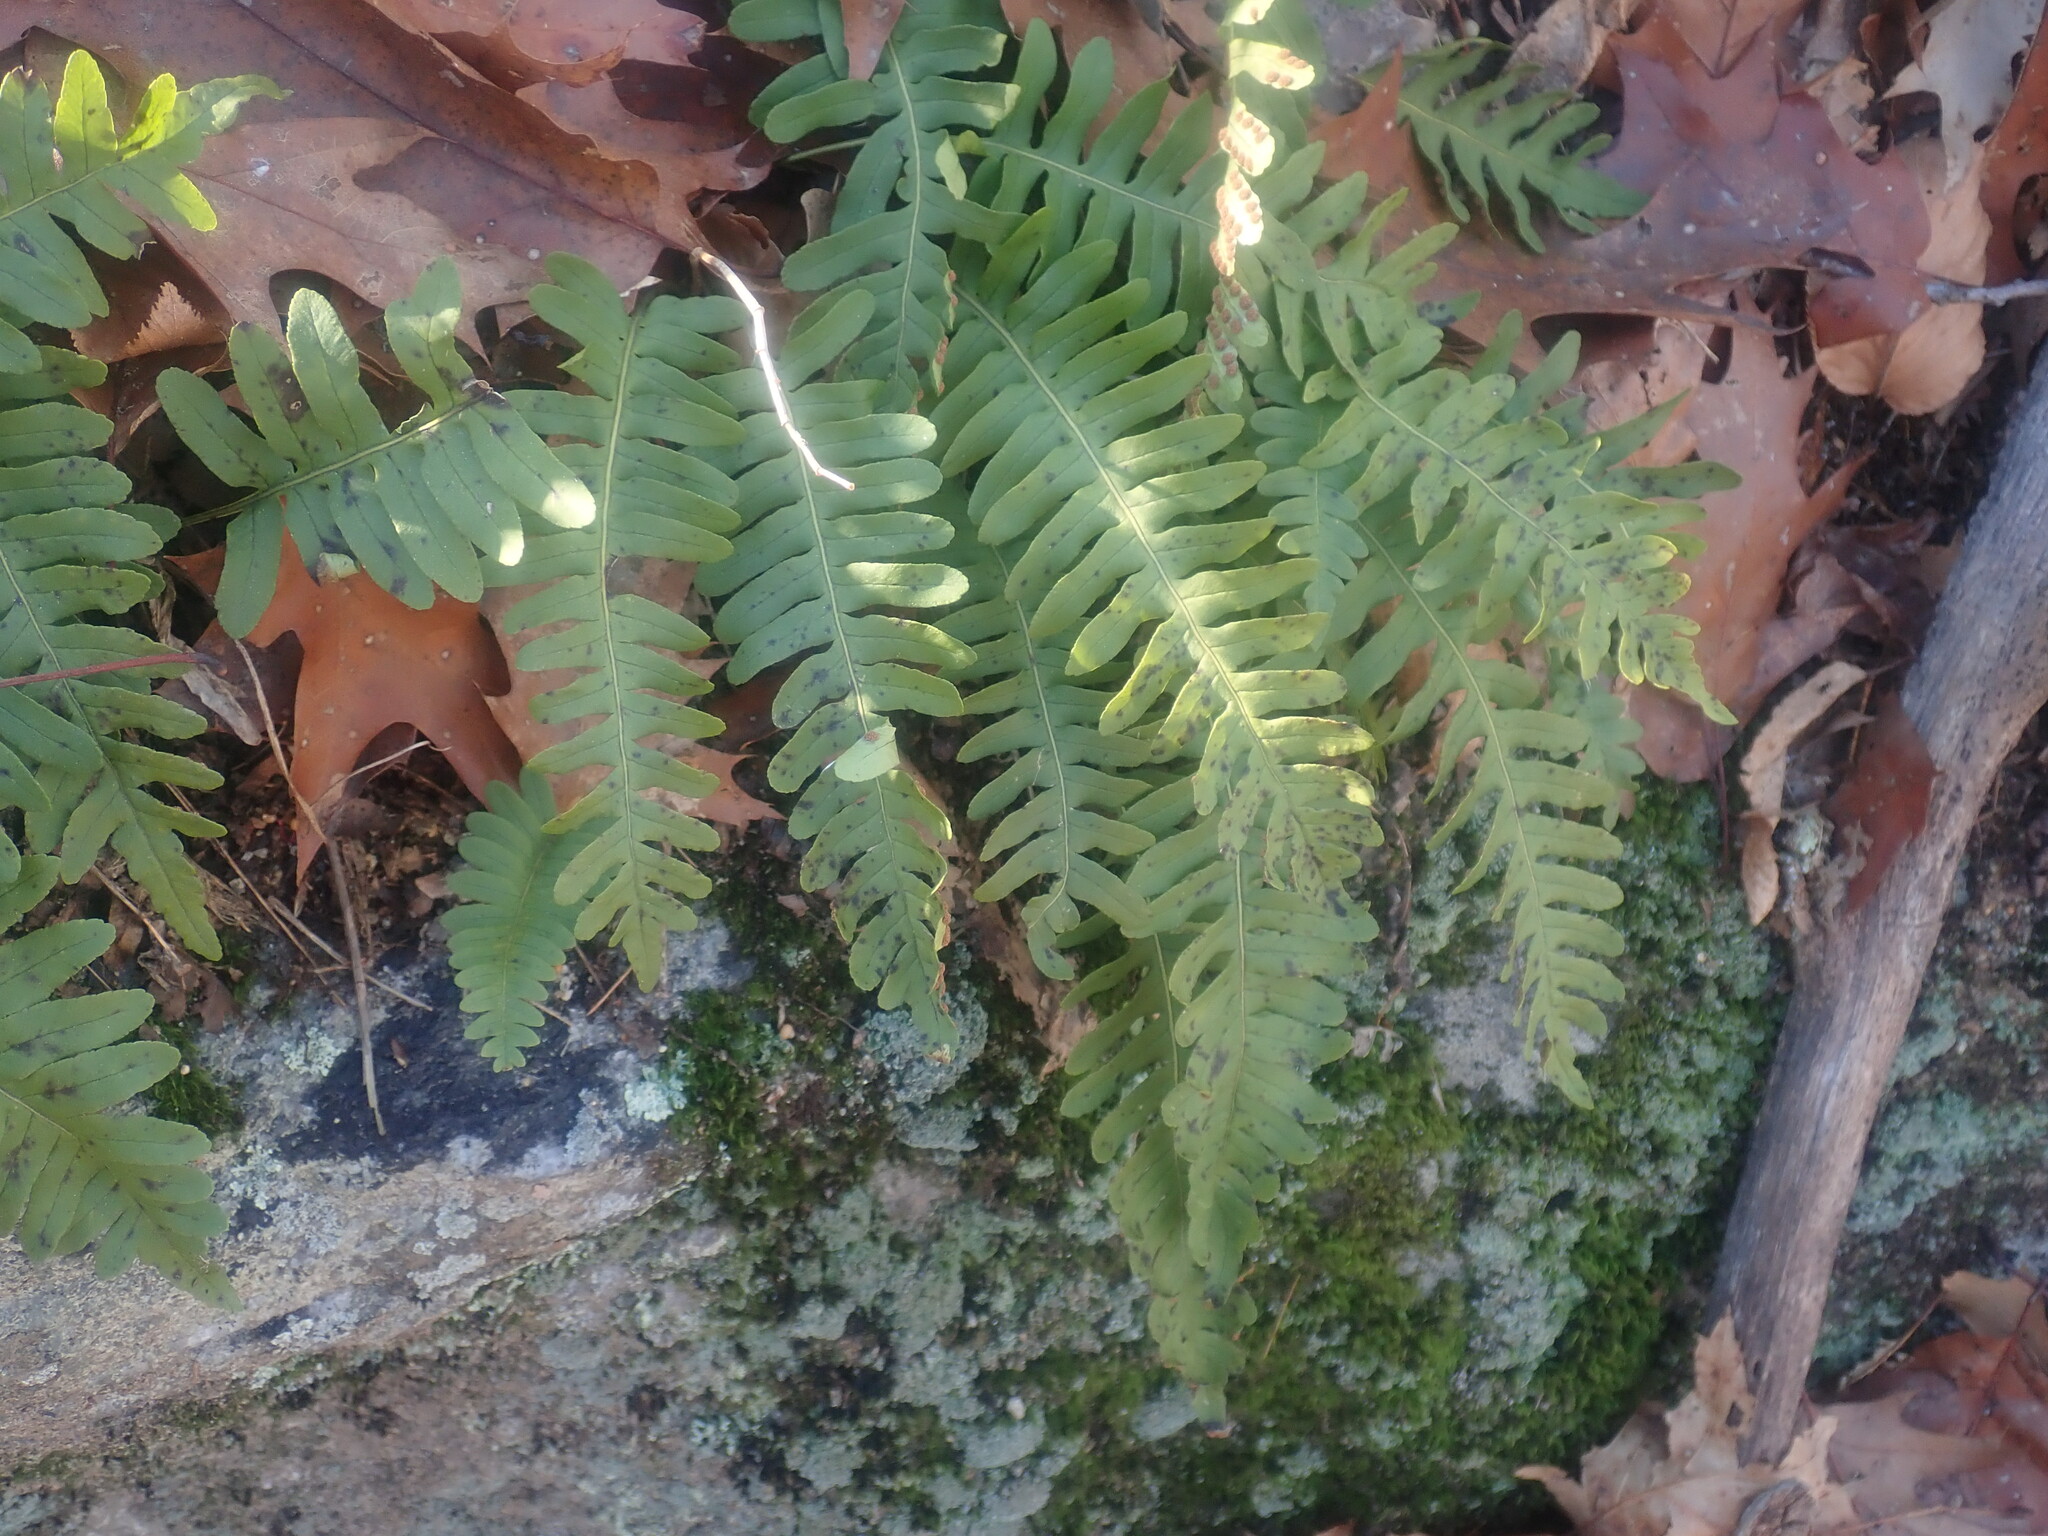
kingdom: Plantae
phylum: Tracheophyta
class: Polypodiopsida
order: Polypodiales
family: Polypodiaceae
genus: Polypodium
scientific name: Polypodium
